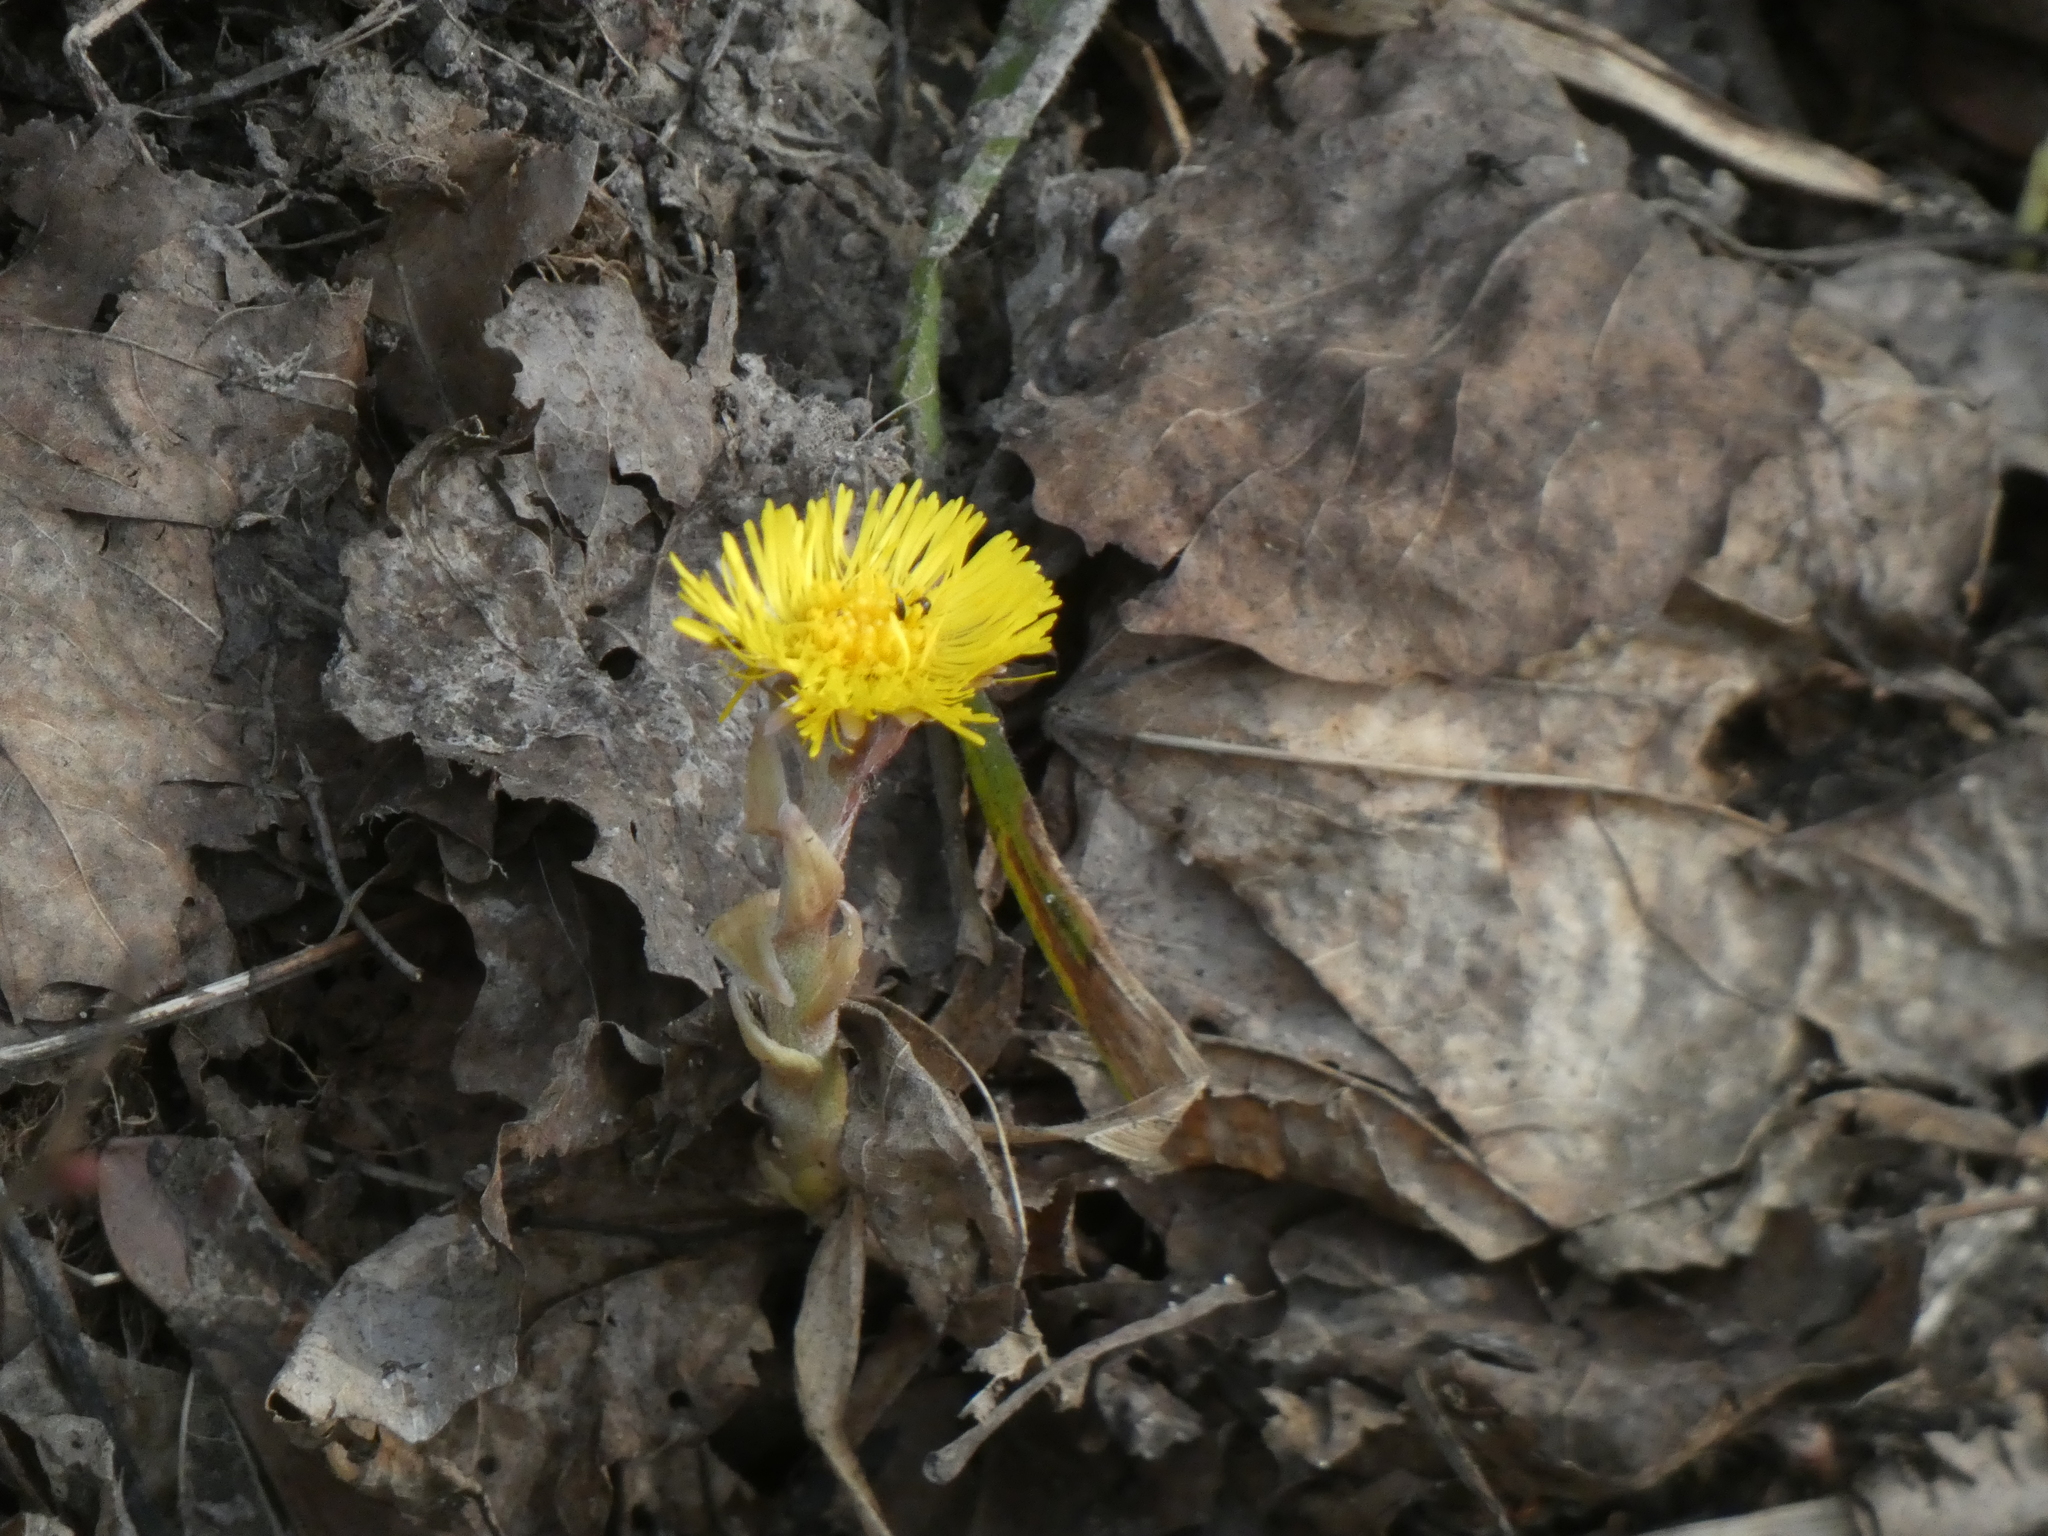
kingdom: Plantae
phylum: Tracheophyta
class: Magnoliopsida
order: Asterales
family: Asteraceae
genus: Tussilago
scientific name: Tussilago farfara
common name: Coltsfoot
